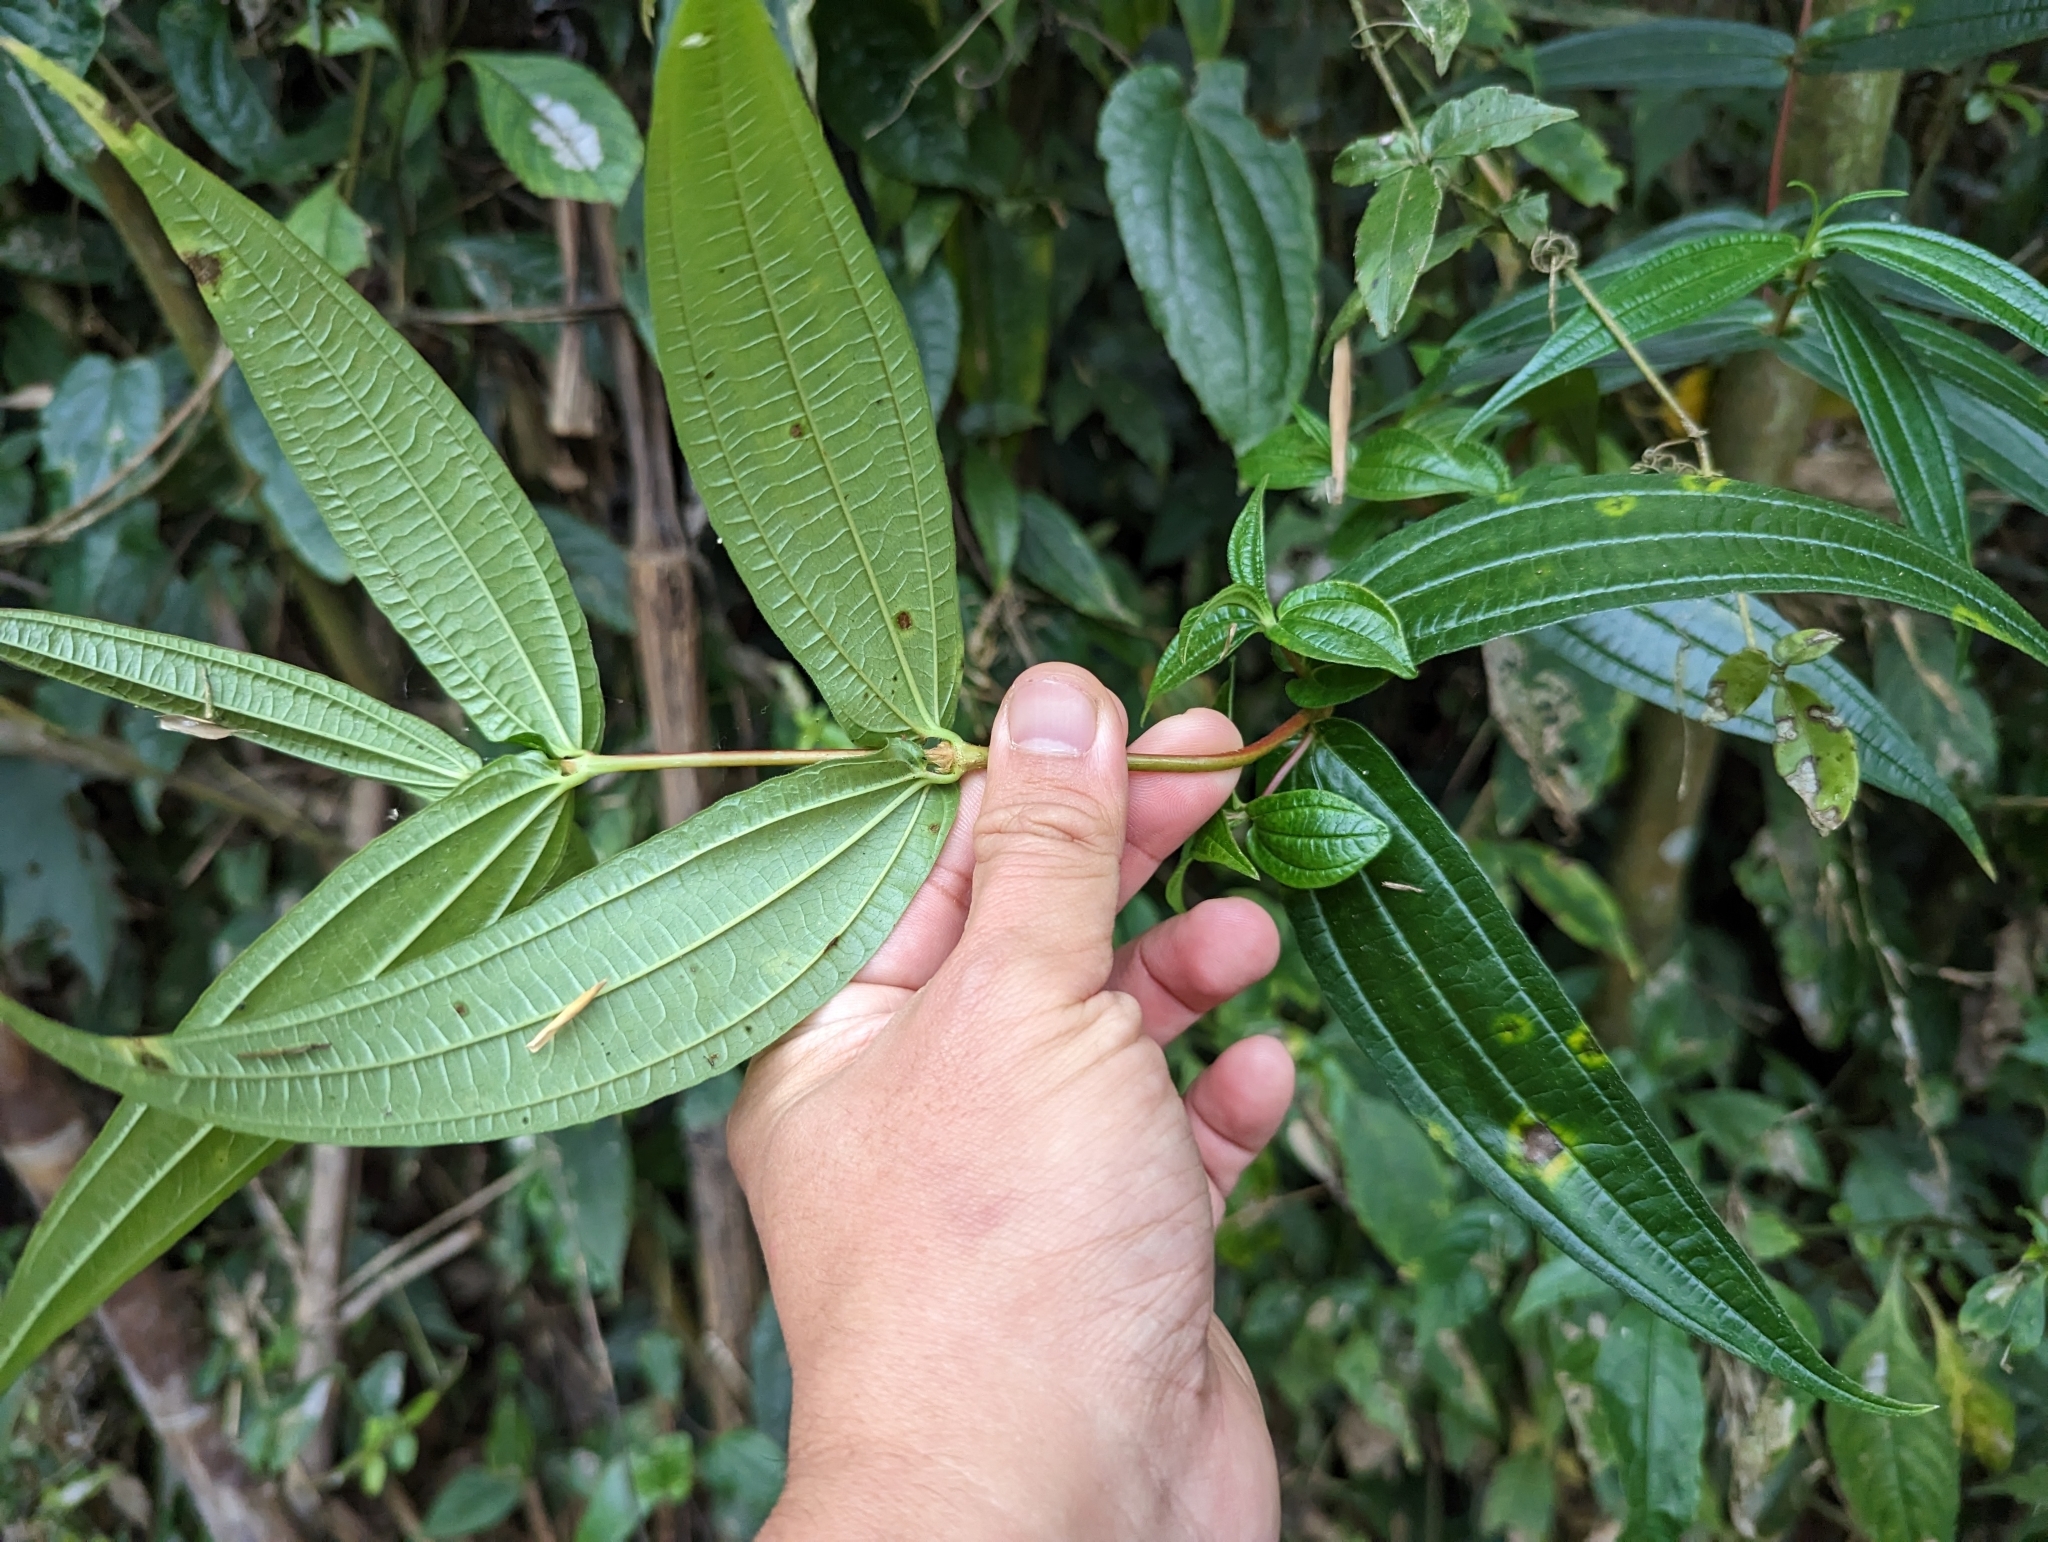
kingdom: Plantae
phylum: Tracheophyta
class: Magnoliopsida
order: Rosales
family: Urticaceae
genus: Gonostegia
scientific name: Gonostegia triandra
